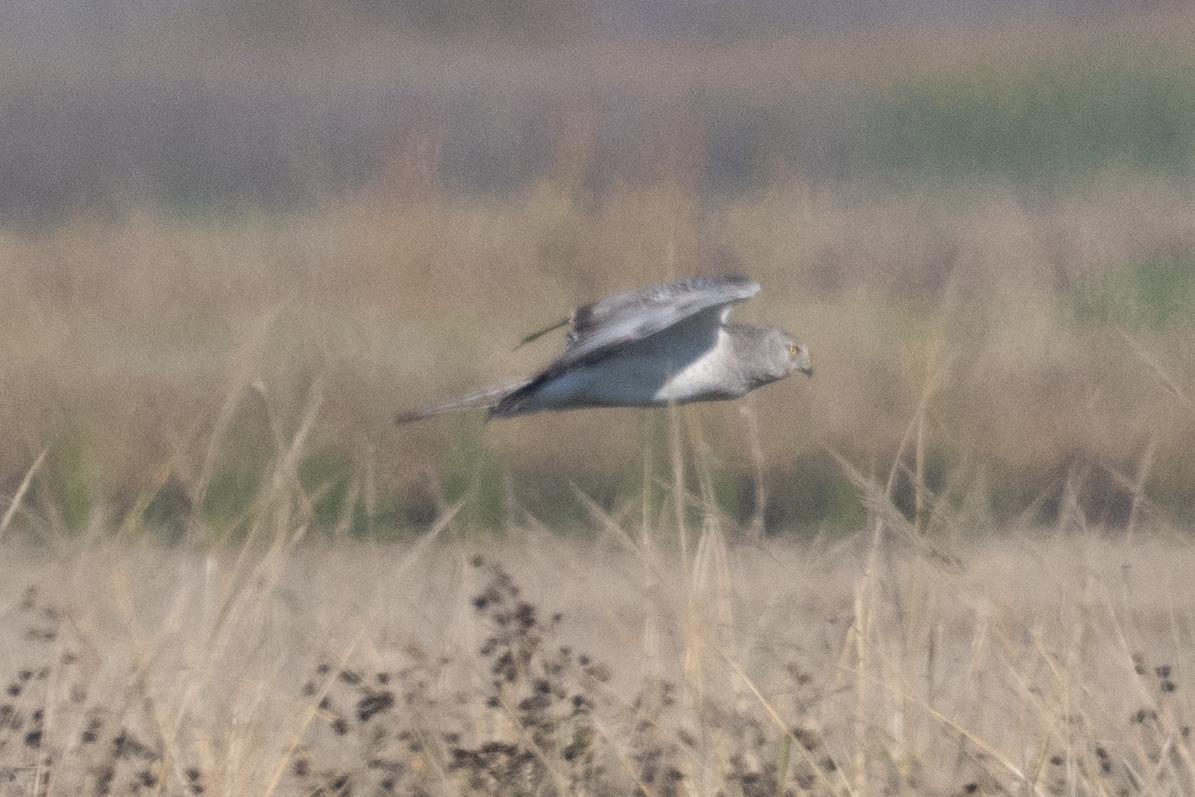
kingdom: Animalia
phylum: Chordata
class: Aves
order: Accipitriformes
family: Accipitridae
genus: Circus
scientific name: Circus cyaneus
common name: Hen harrier
